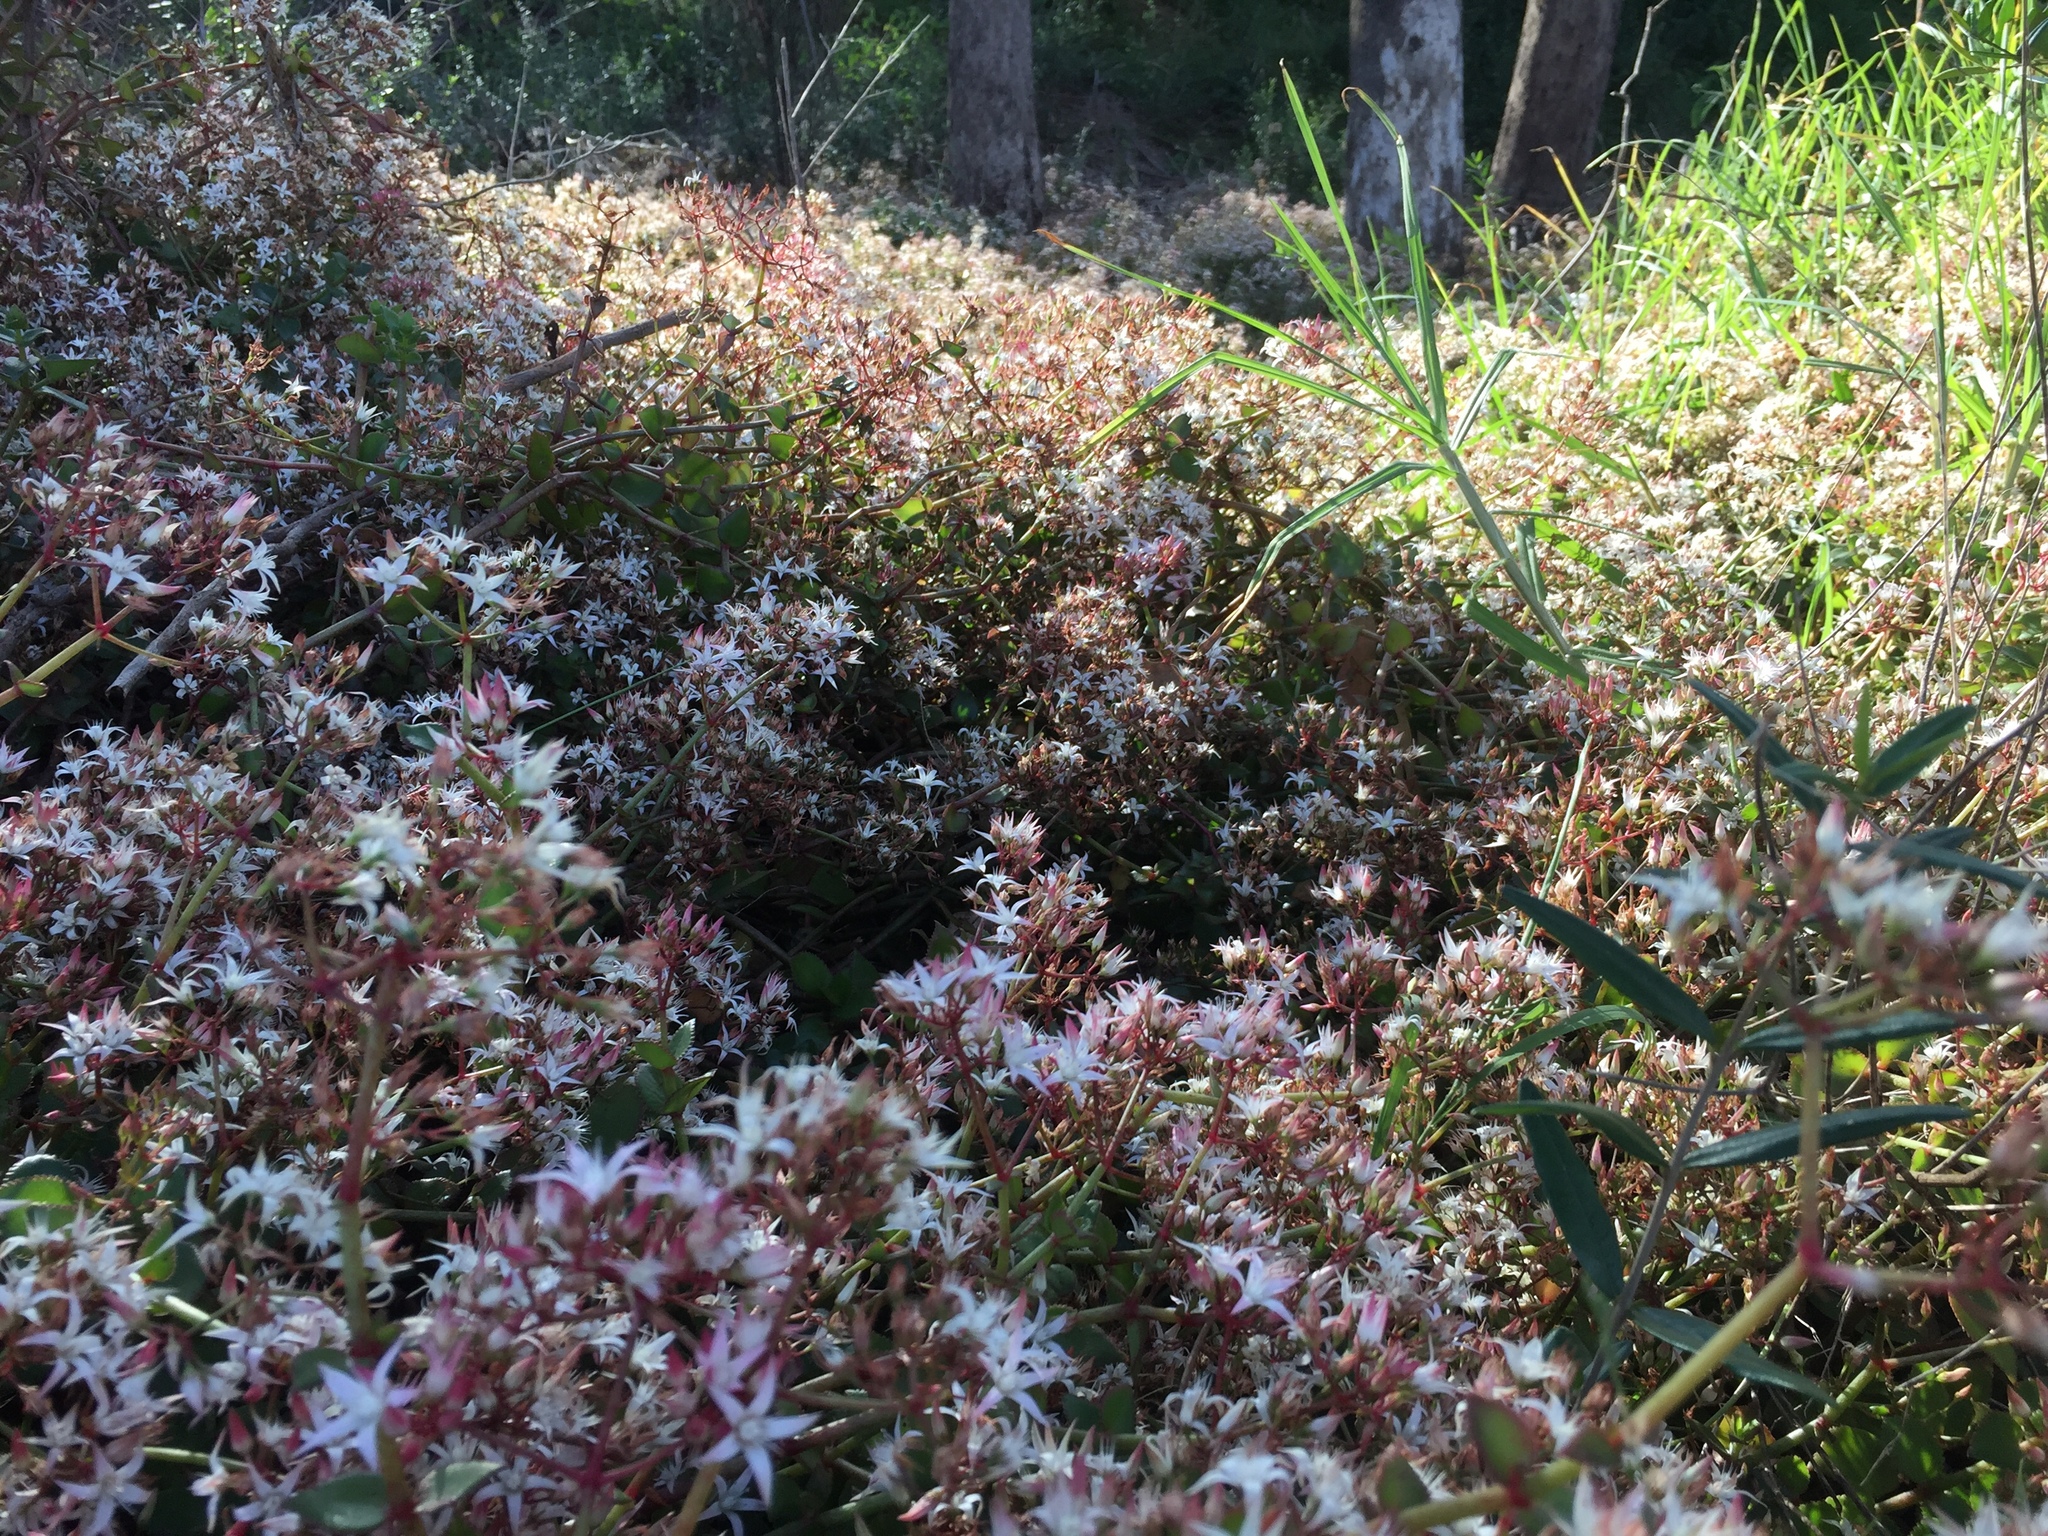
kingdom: Plantae
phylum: Tracheophyta
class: Magnoliopsida
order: Saxifragales
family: Crassulaceae
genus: Crassula
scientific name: Crassula sarmentosa
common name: Jade-tree
